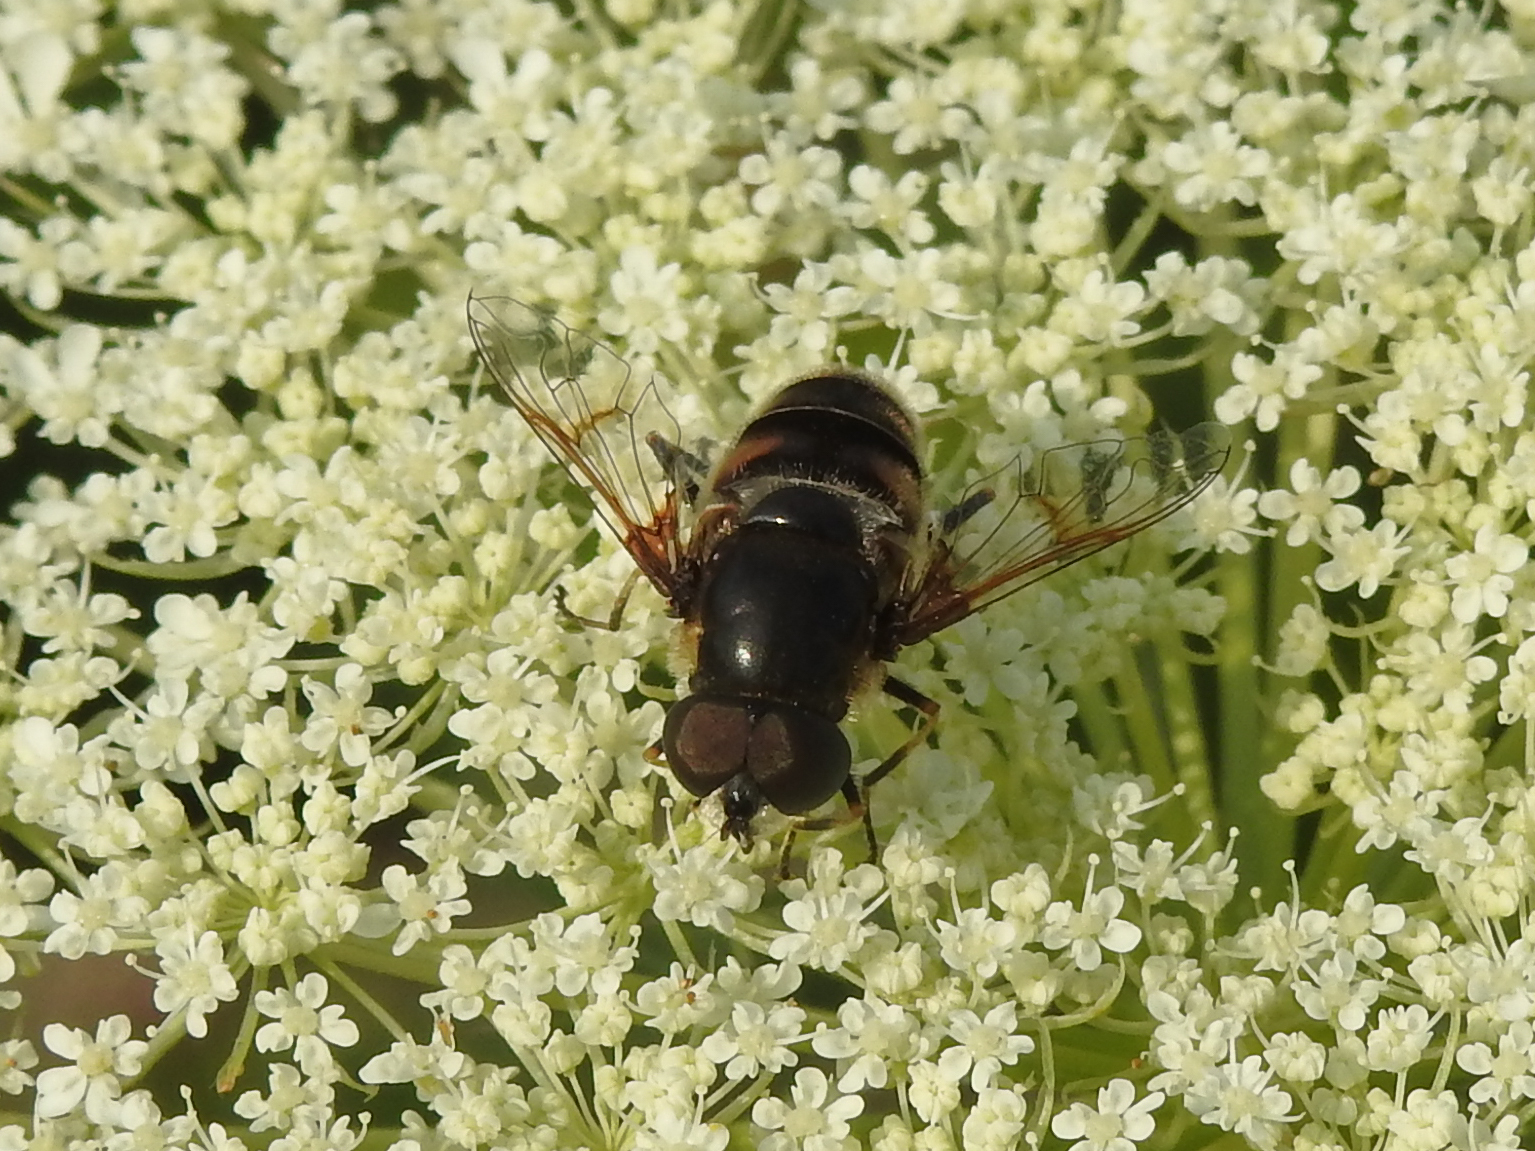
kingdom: Animalia
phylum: Arthropoda
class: Insecta
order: Diptera
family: Syrphidae
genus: Eristalis
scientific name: Eristalis dimidiata
